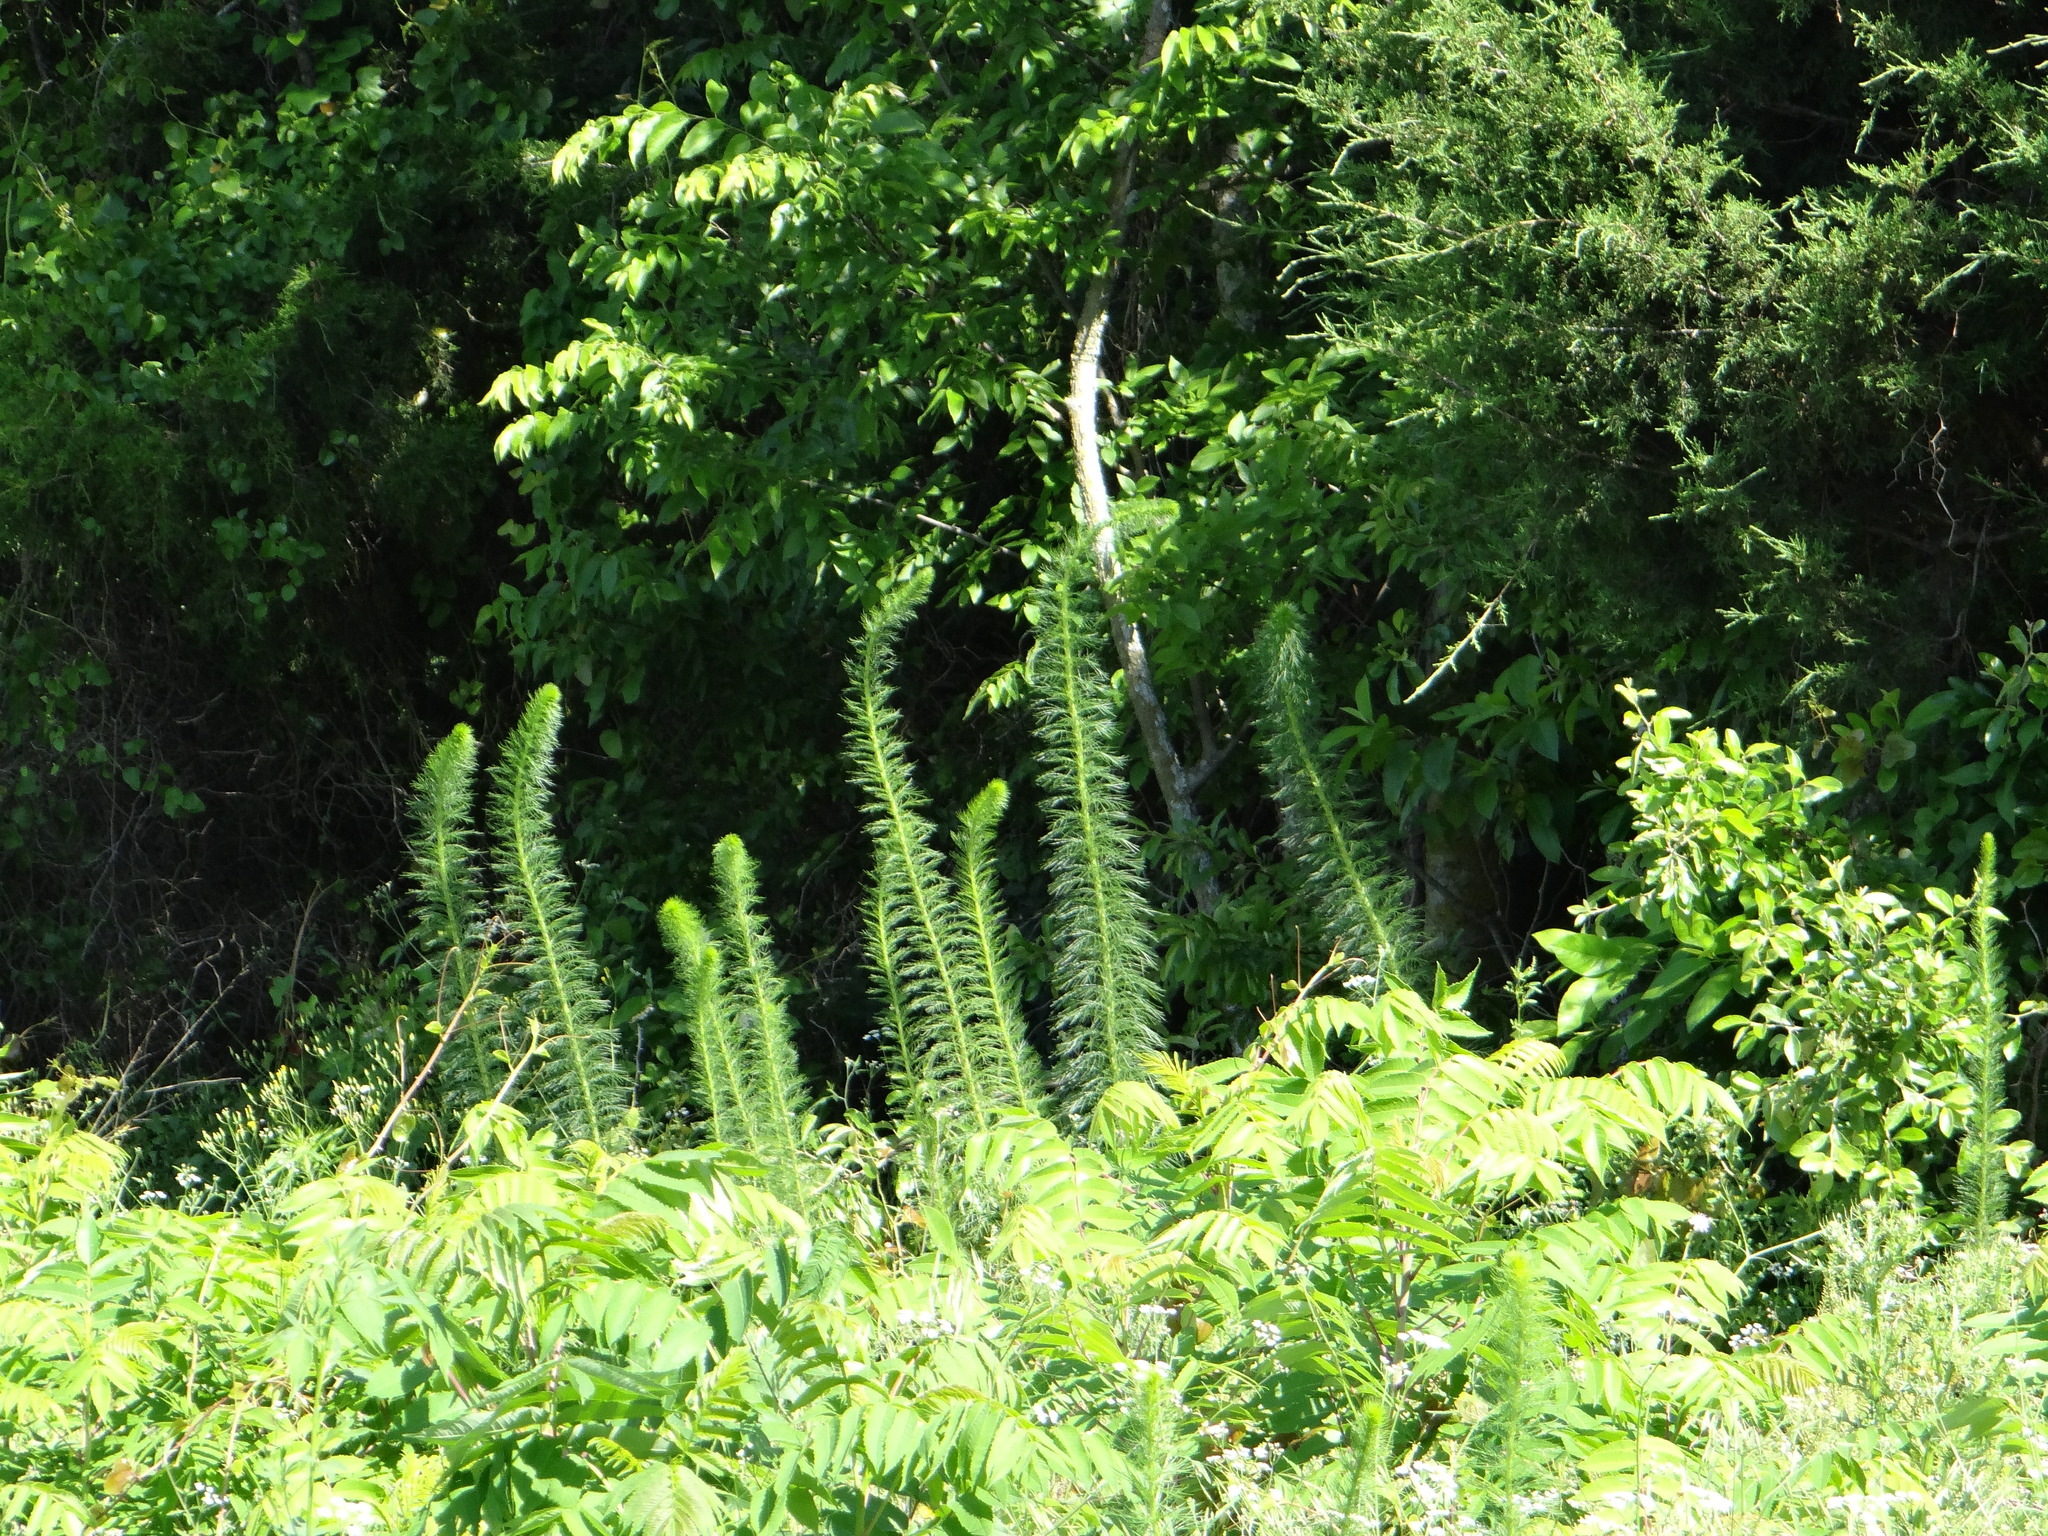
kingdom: Plantae
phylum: Tracheophyta
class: Magnoliopsida
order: Ericales
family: Polemoniaceae
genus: Ipomopsis
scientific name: Ipomopsis rubra
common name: Skyrocket
